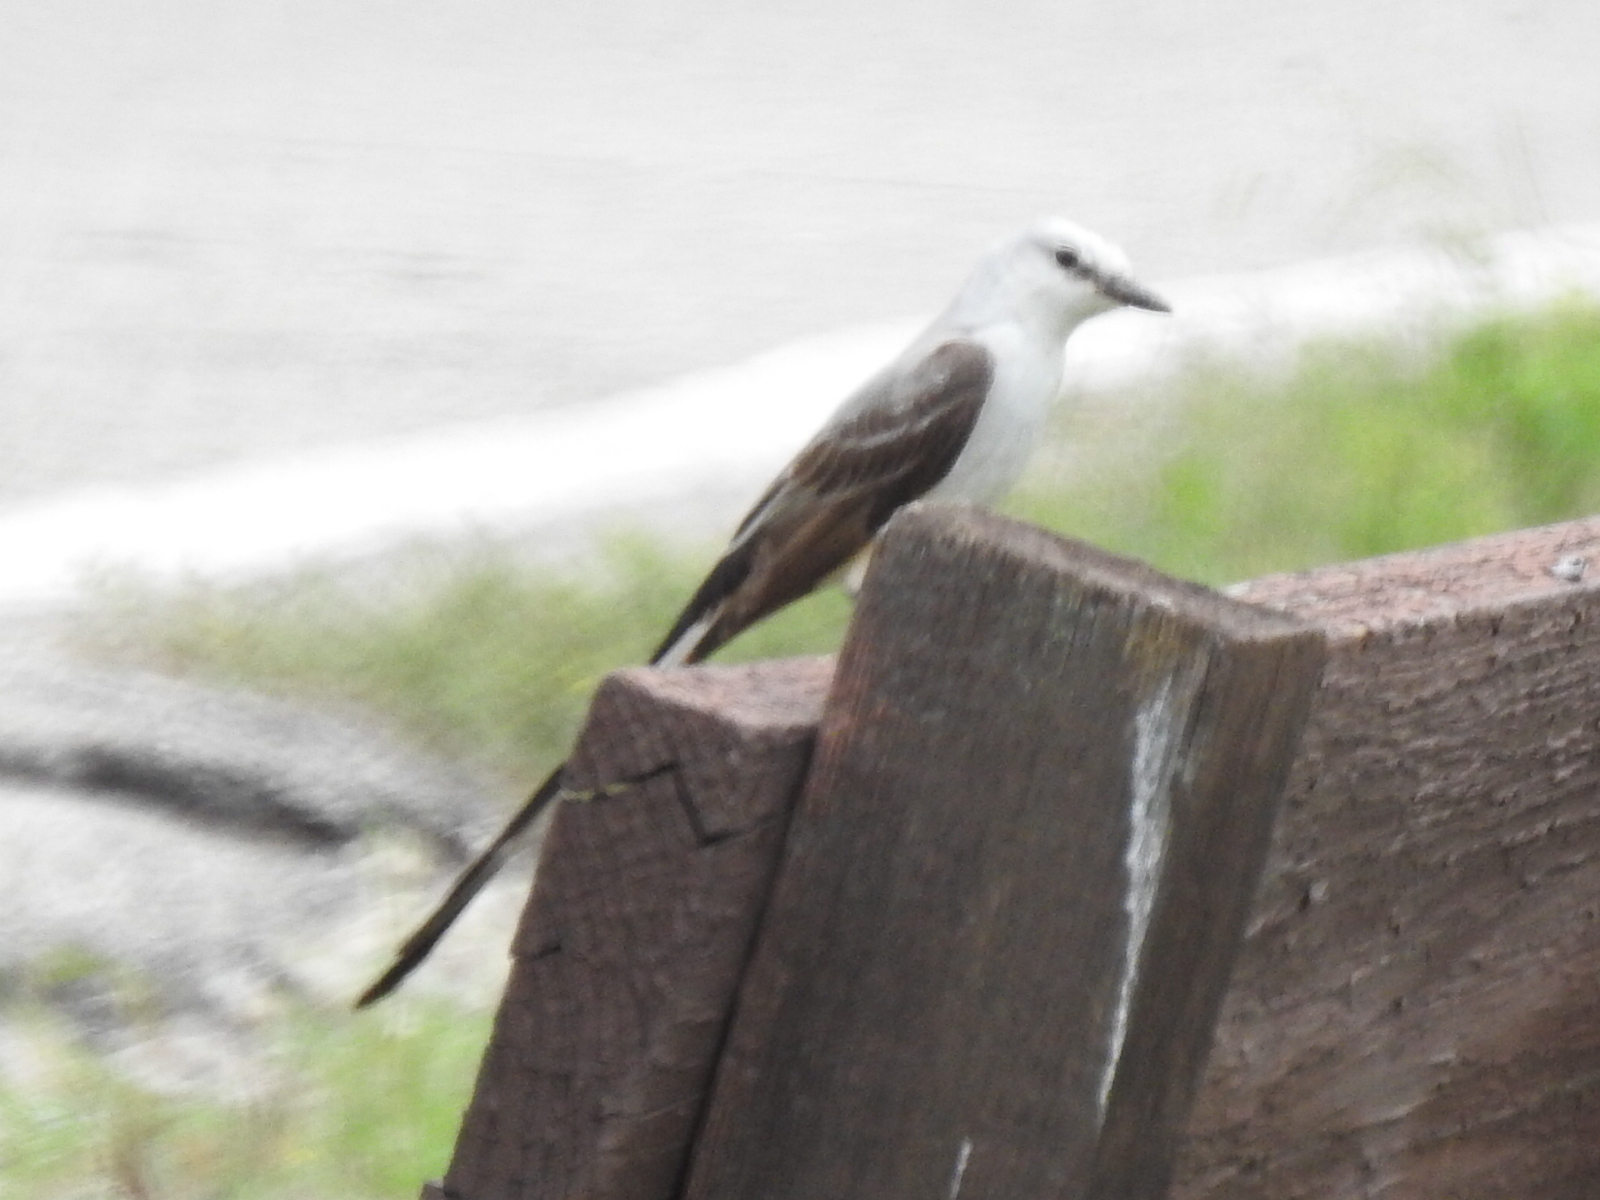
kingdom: Animalia
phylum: Chordata
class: Aves
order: Passeriformes
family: Tyrannidae
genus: Tyrannus
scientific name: Tyrannus forficatus
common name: Scissor-tailed flycatcher
